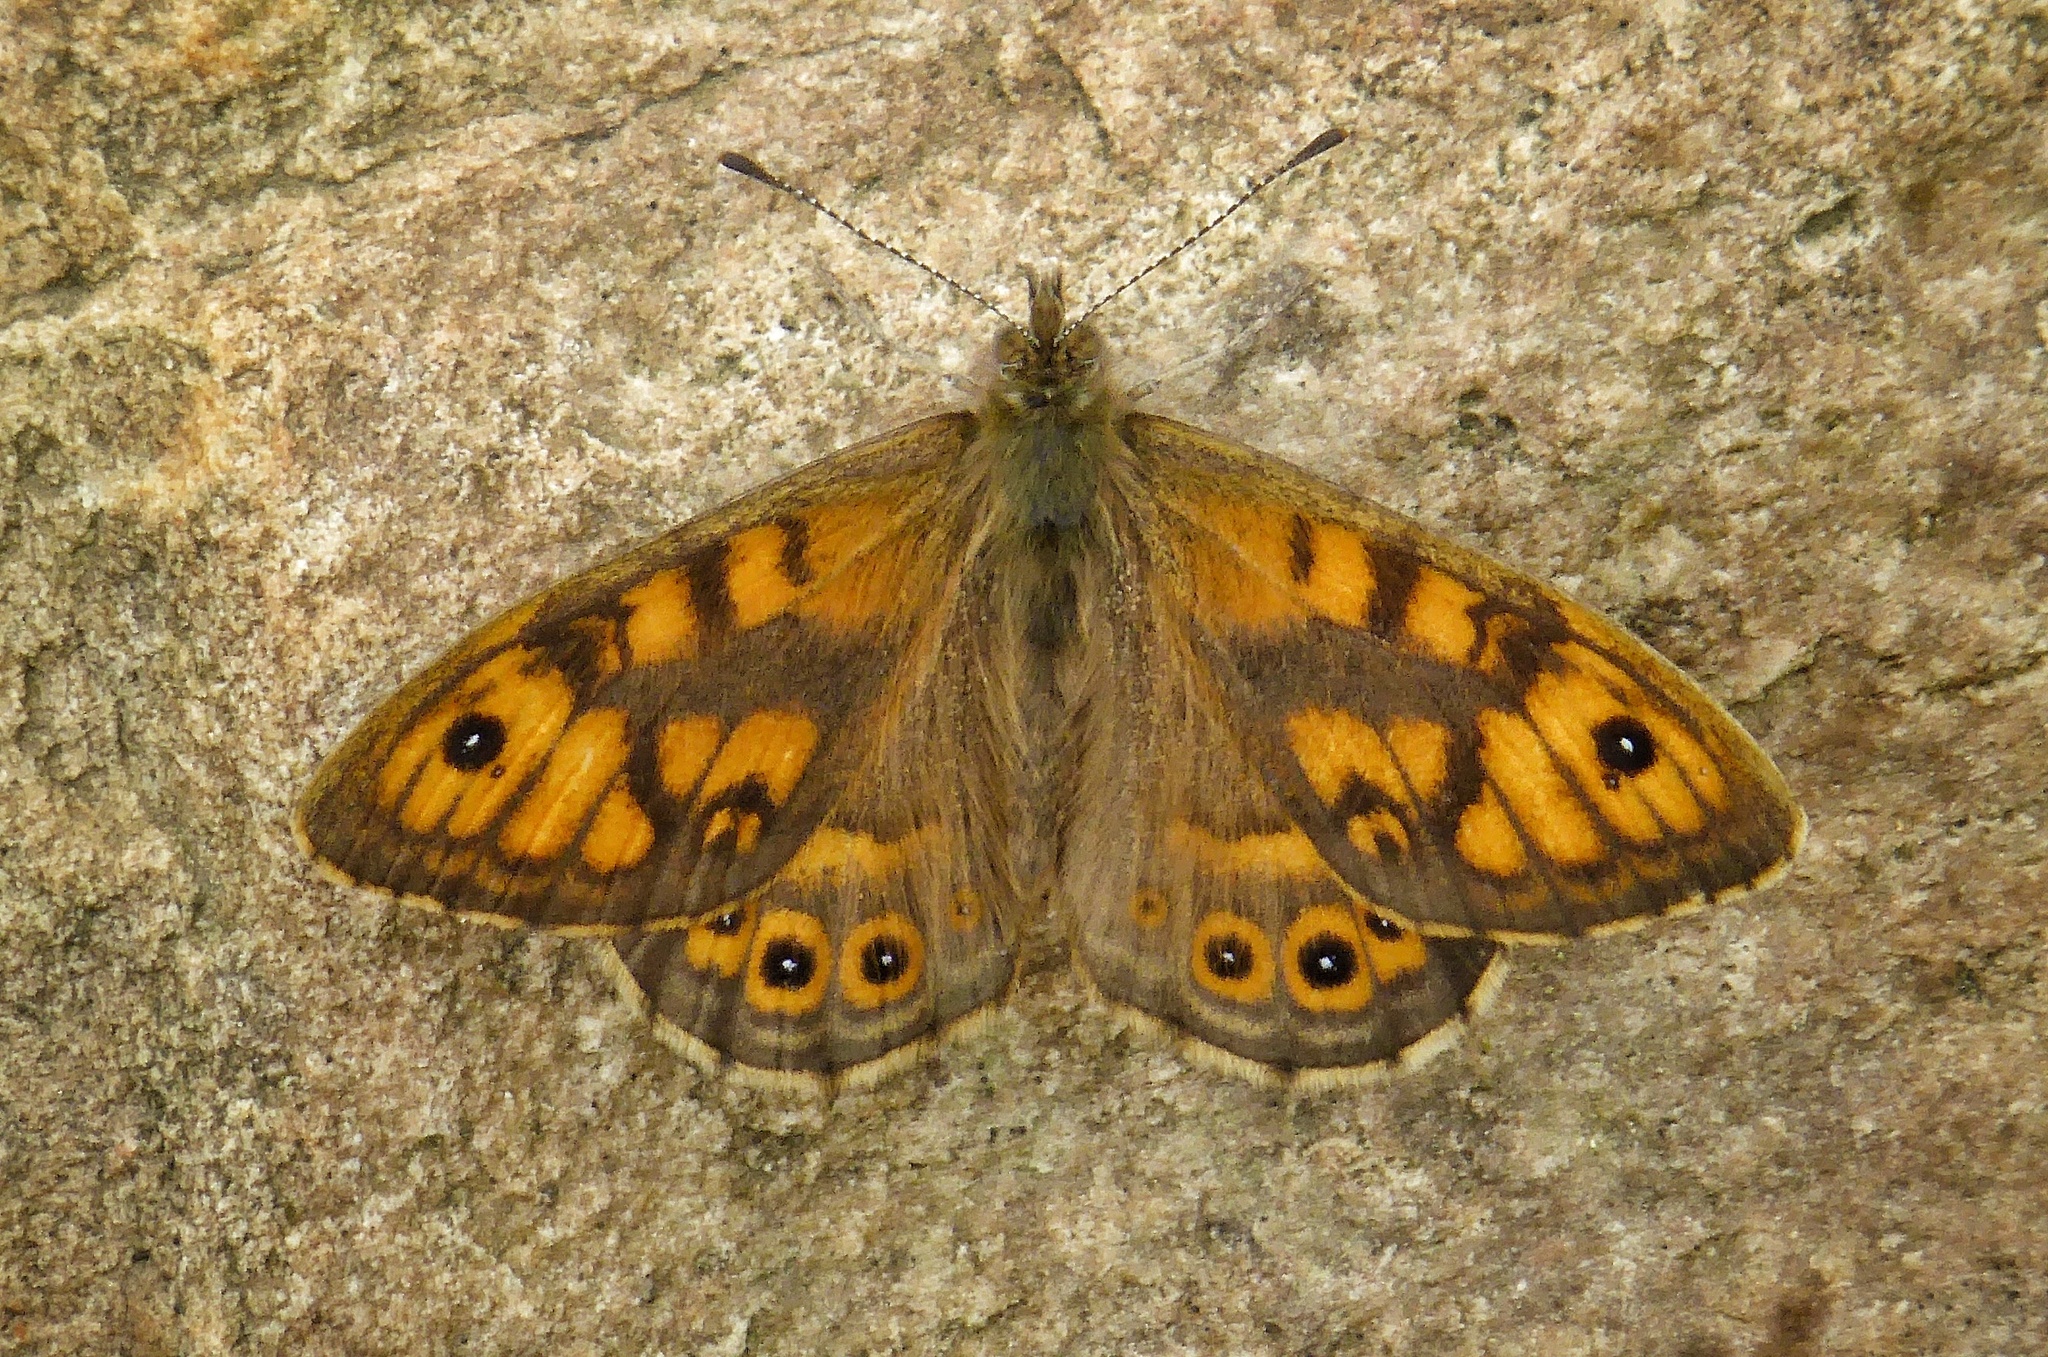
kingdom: Animalia
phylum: Arthropoda
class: Insecta
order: Lepidoptera
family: Nymphalidae
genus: Pararge
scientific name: Pararge Lasiommata megera
